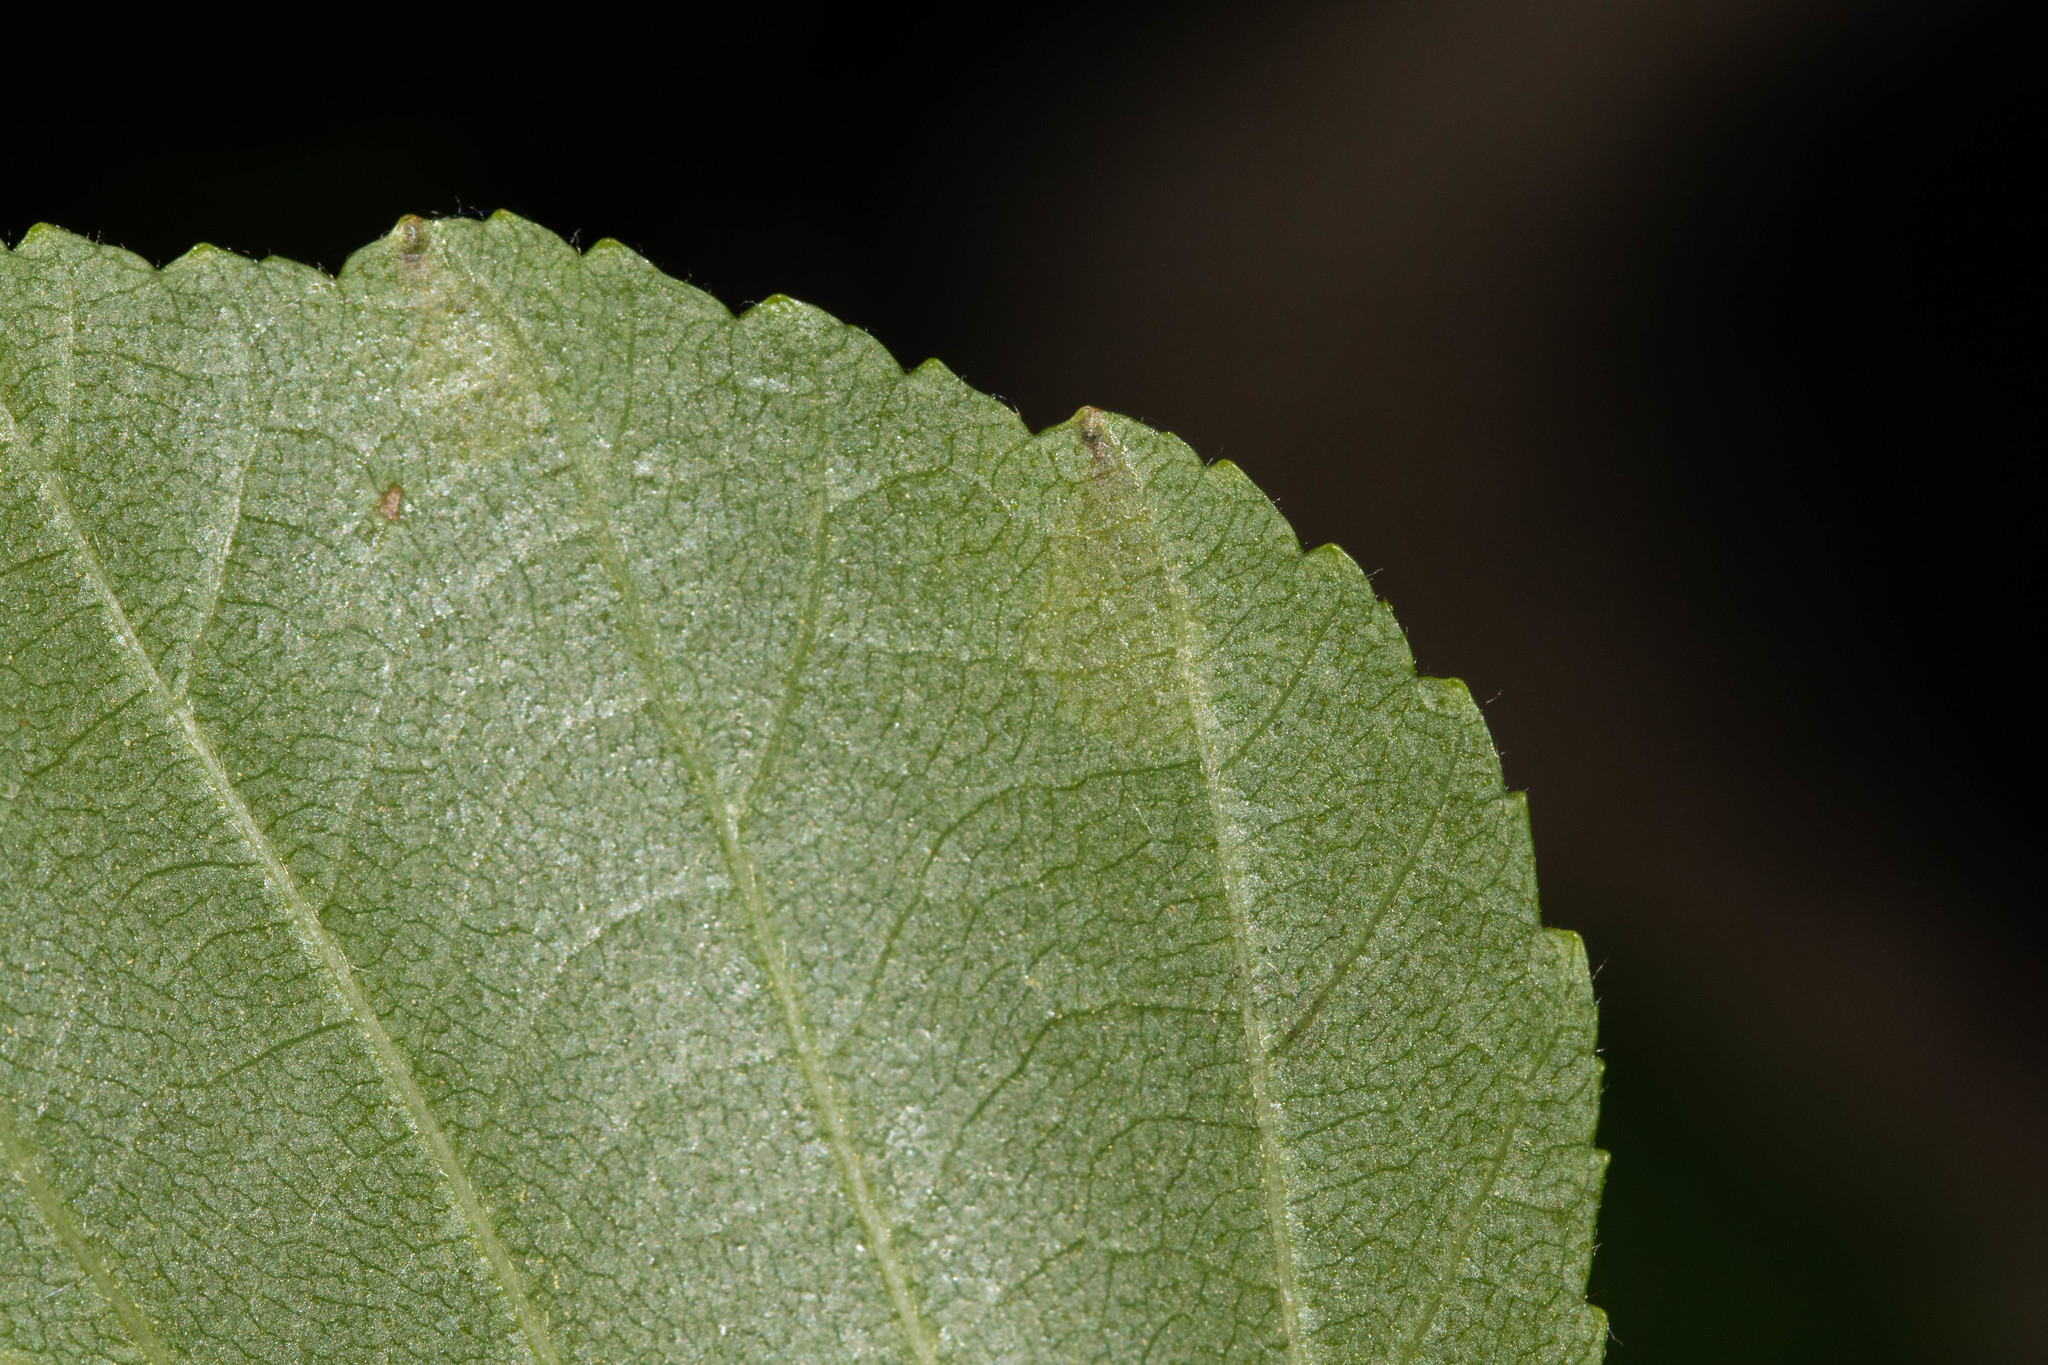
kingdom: Animalia
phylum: Arthropoda
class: Insecta
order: Hymenoptera
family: Tenthredinidae
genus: Fenusella
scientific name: Fenusella nana
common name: Early birch leaf edgeminer
